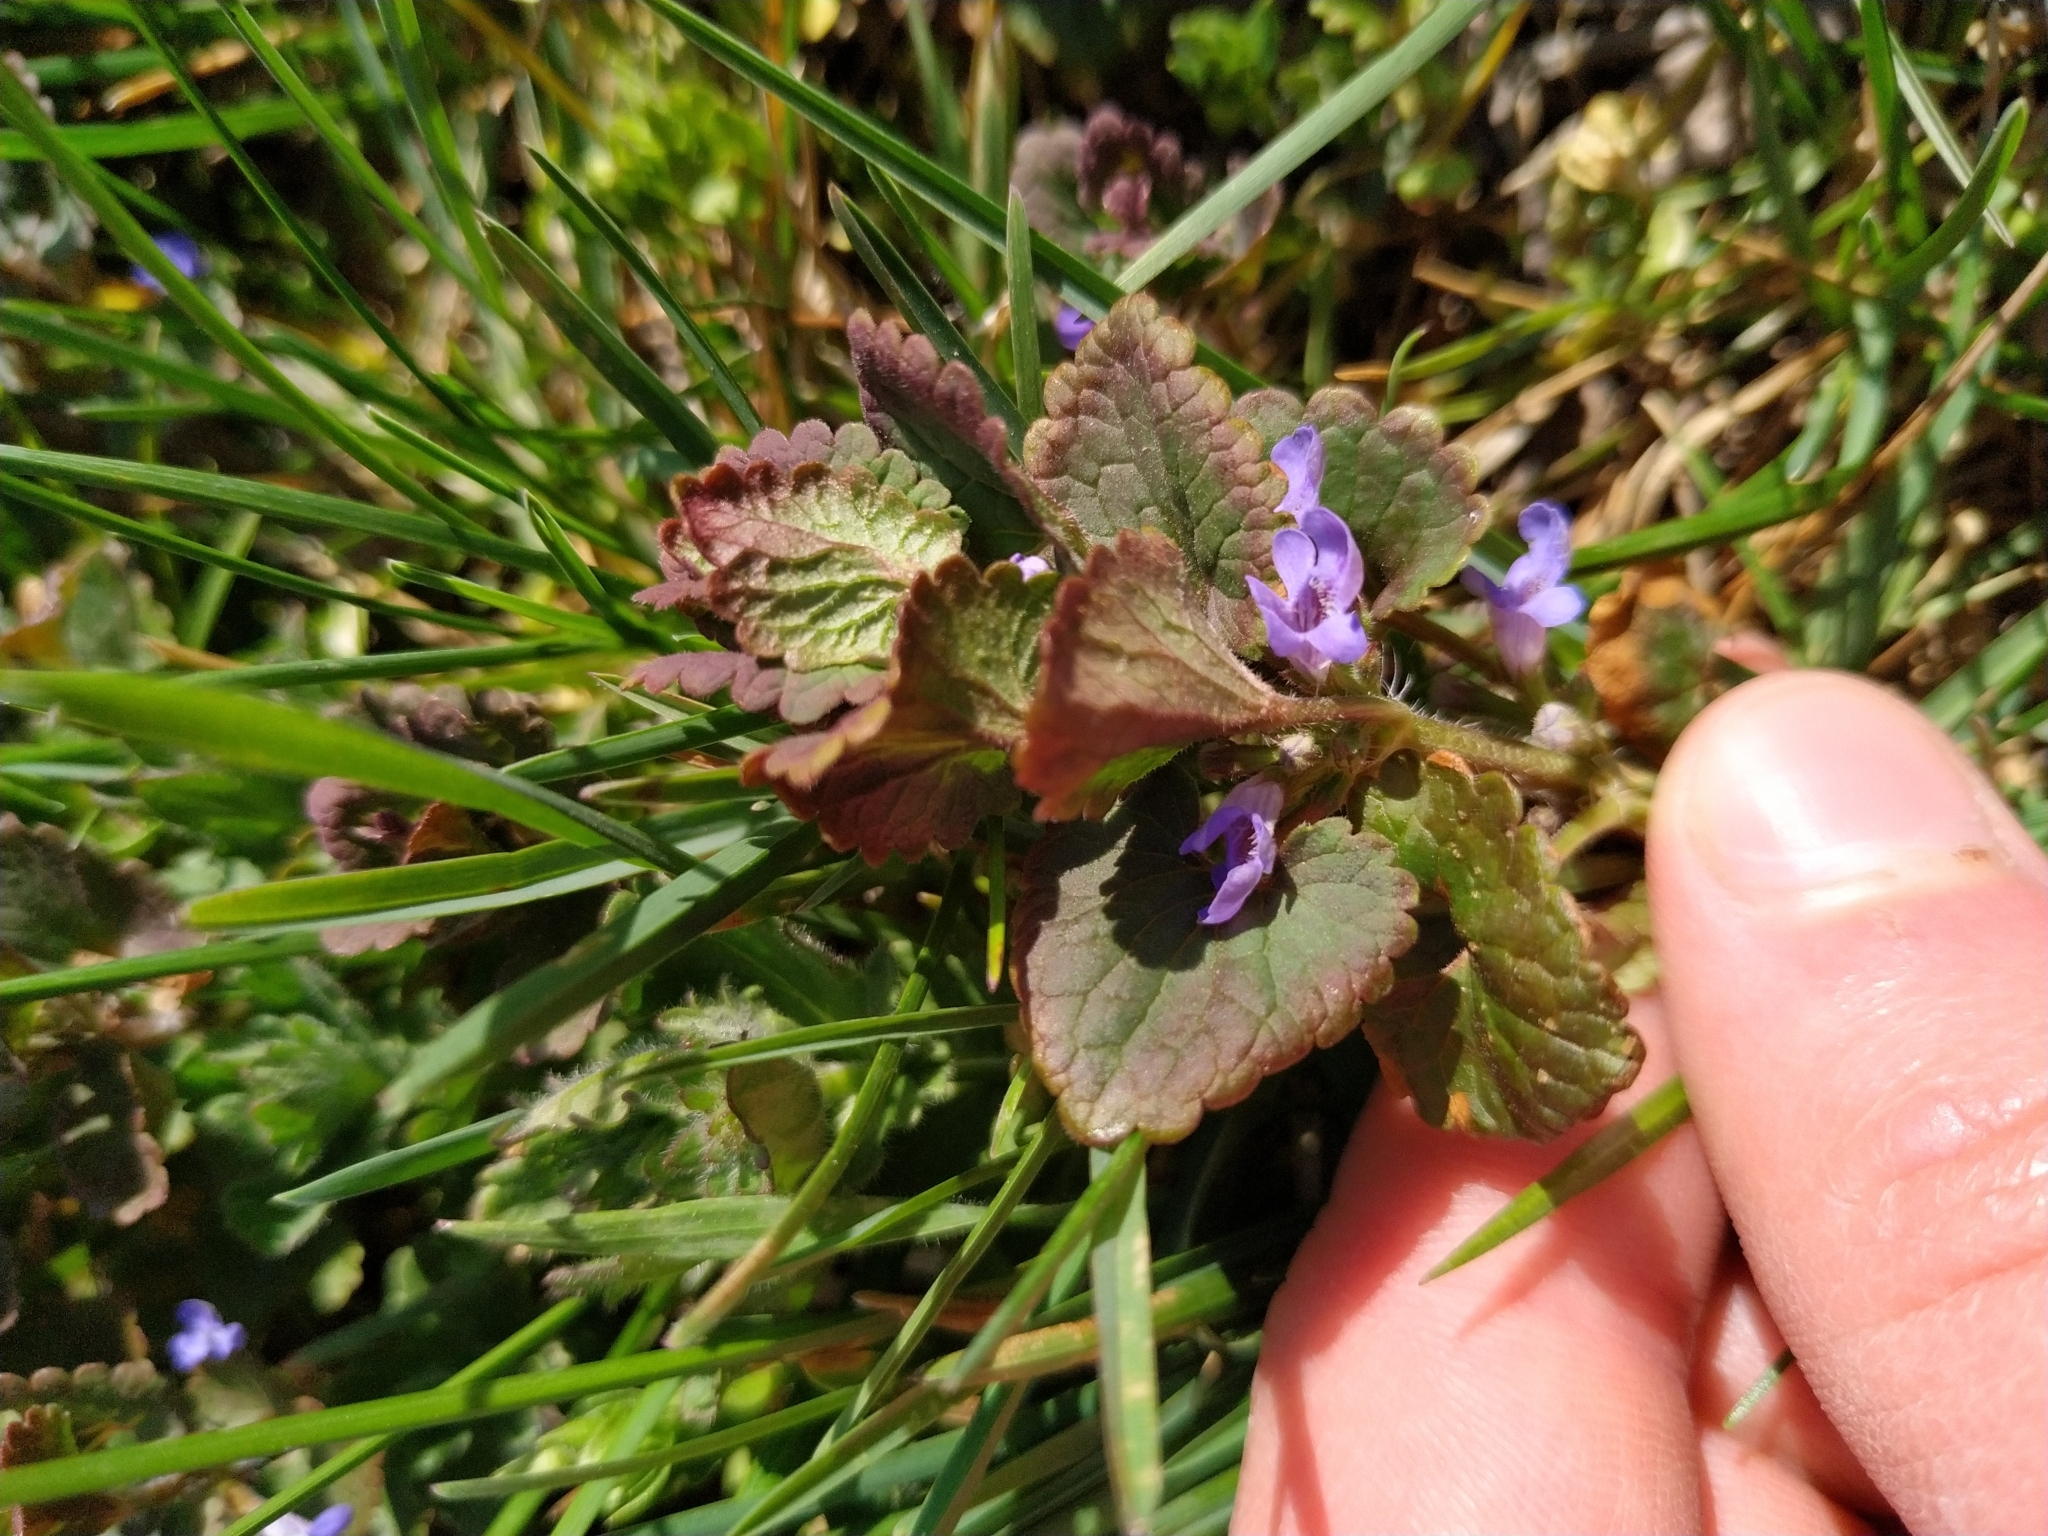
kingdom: Plantae
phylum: Tracheophyta
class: Magnoliopsida
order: Lamiales
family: Lamiaceae
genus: Glechoma
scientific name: Glechoma hederacea
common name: Ground ivy
